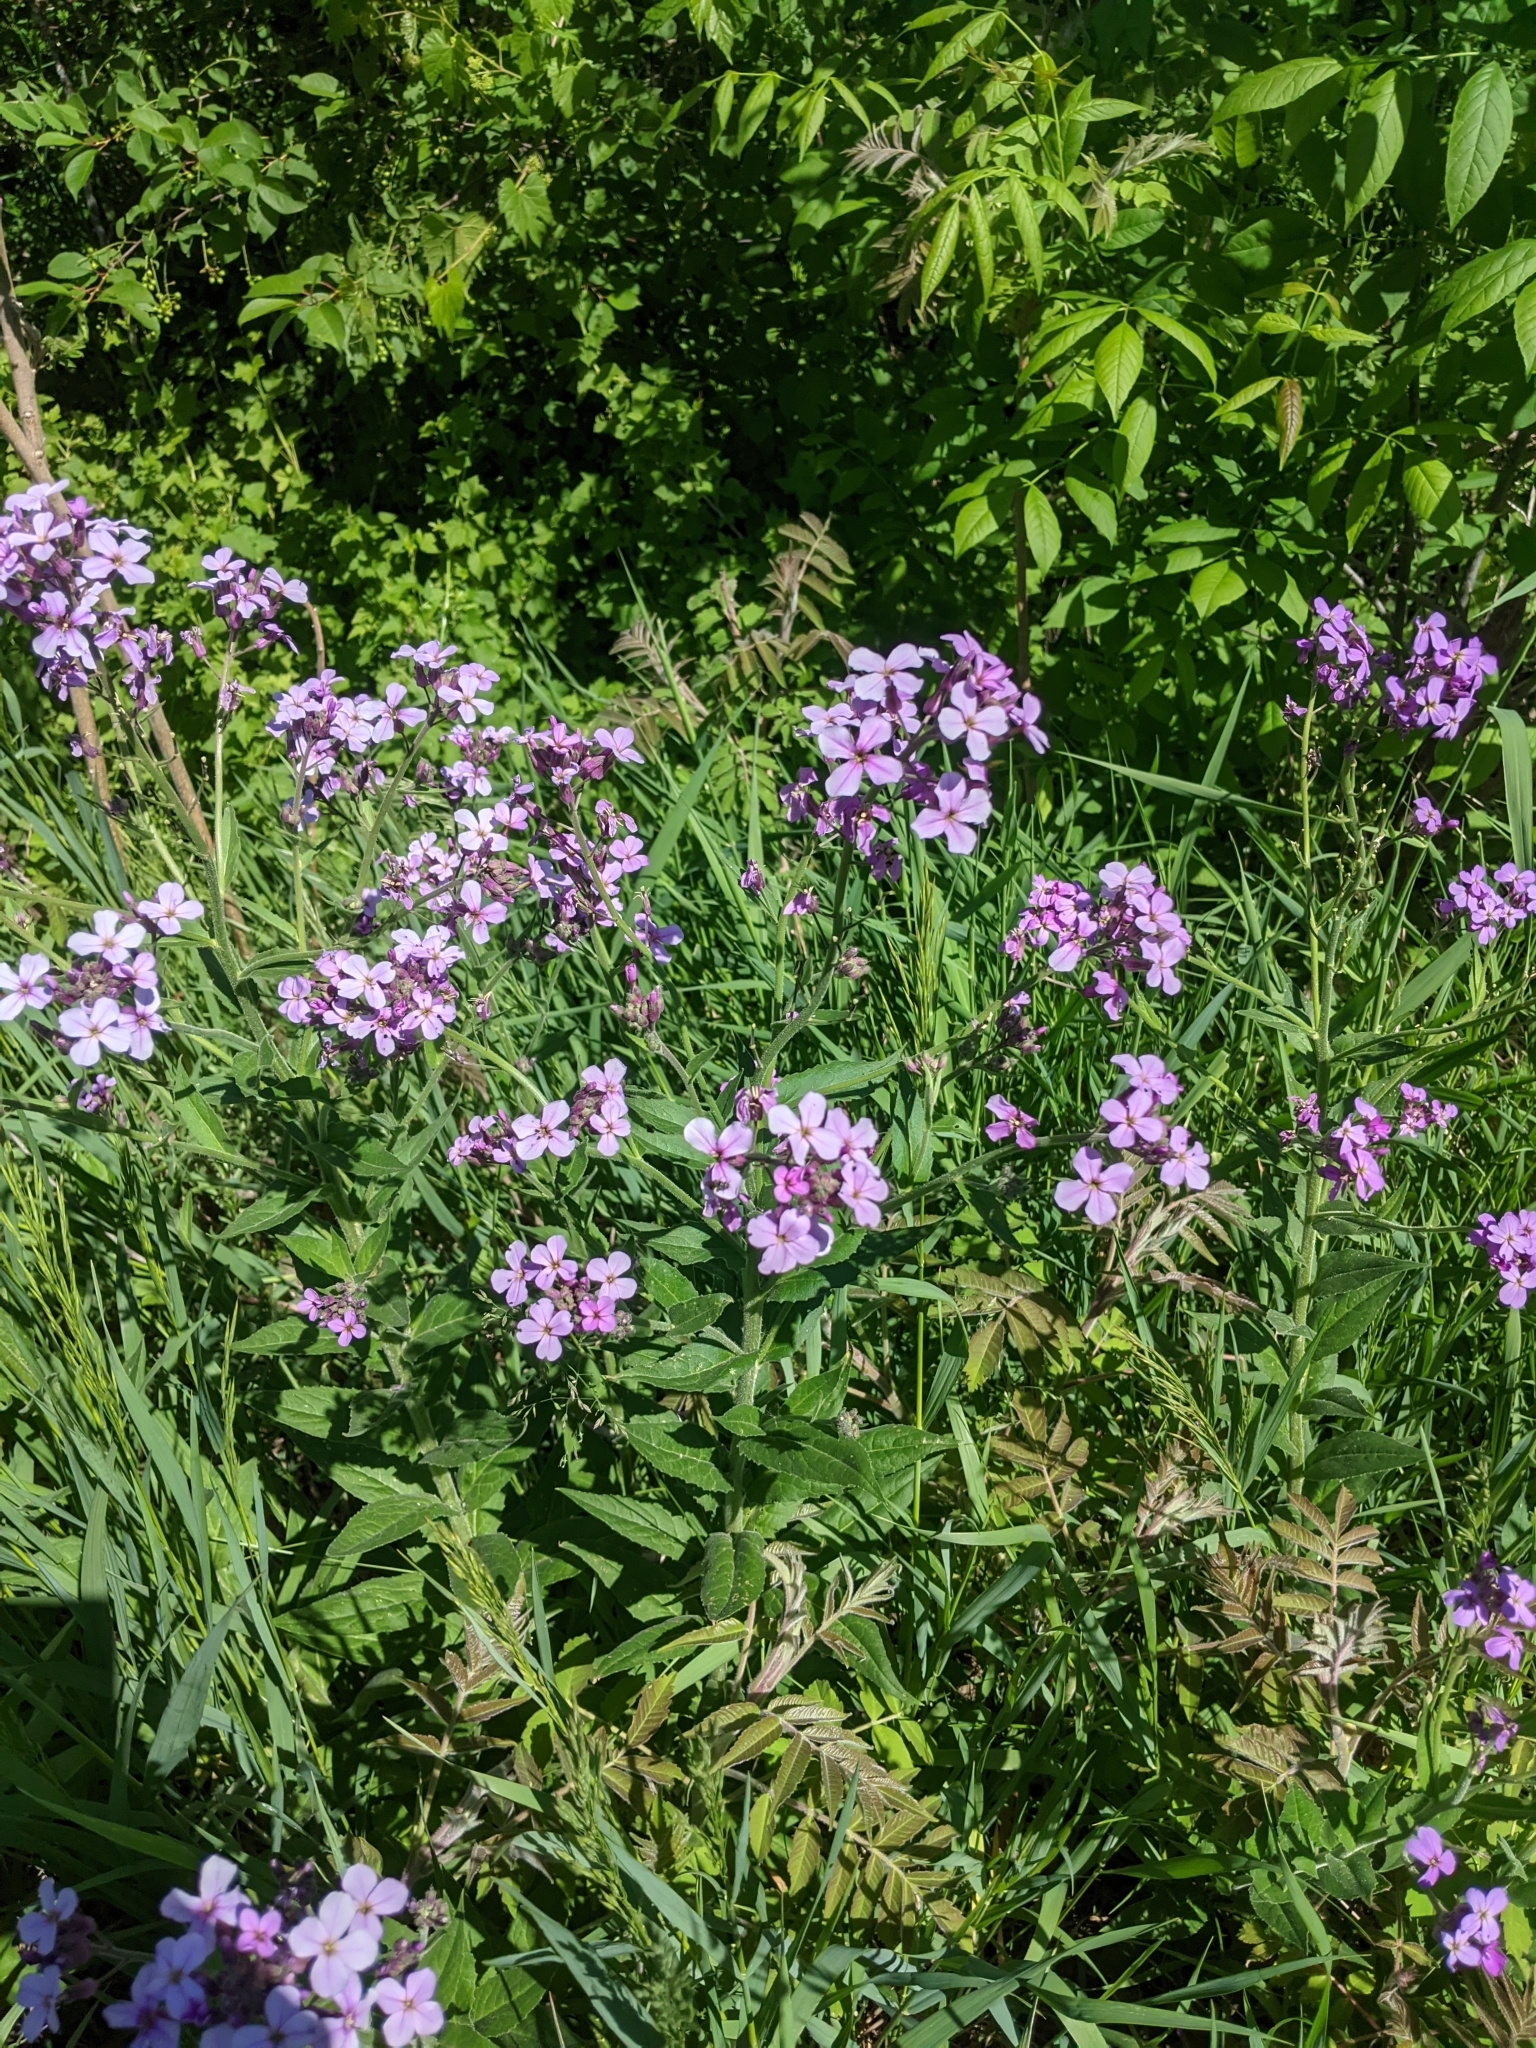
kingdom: Plantae
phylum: Tracheophyta
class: Magnoliopsida
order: Brassicales
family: Brassicaceae
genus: Hesperis
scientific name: Hesperis matronalis
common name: Dame's-violet
